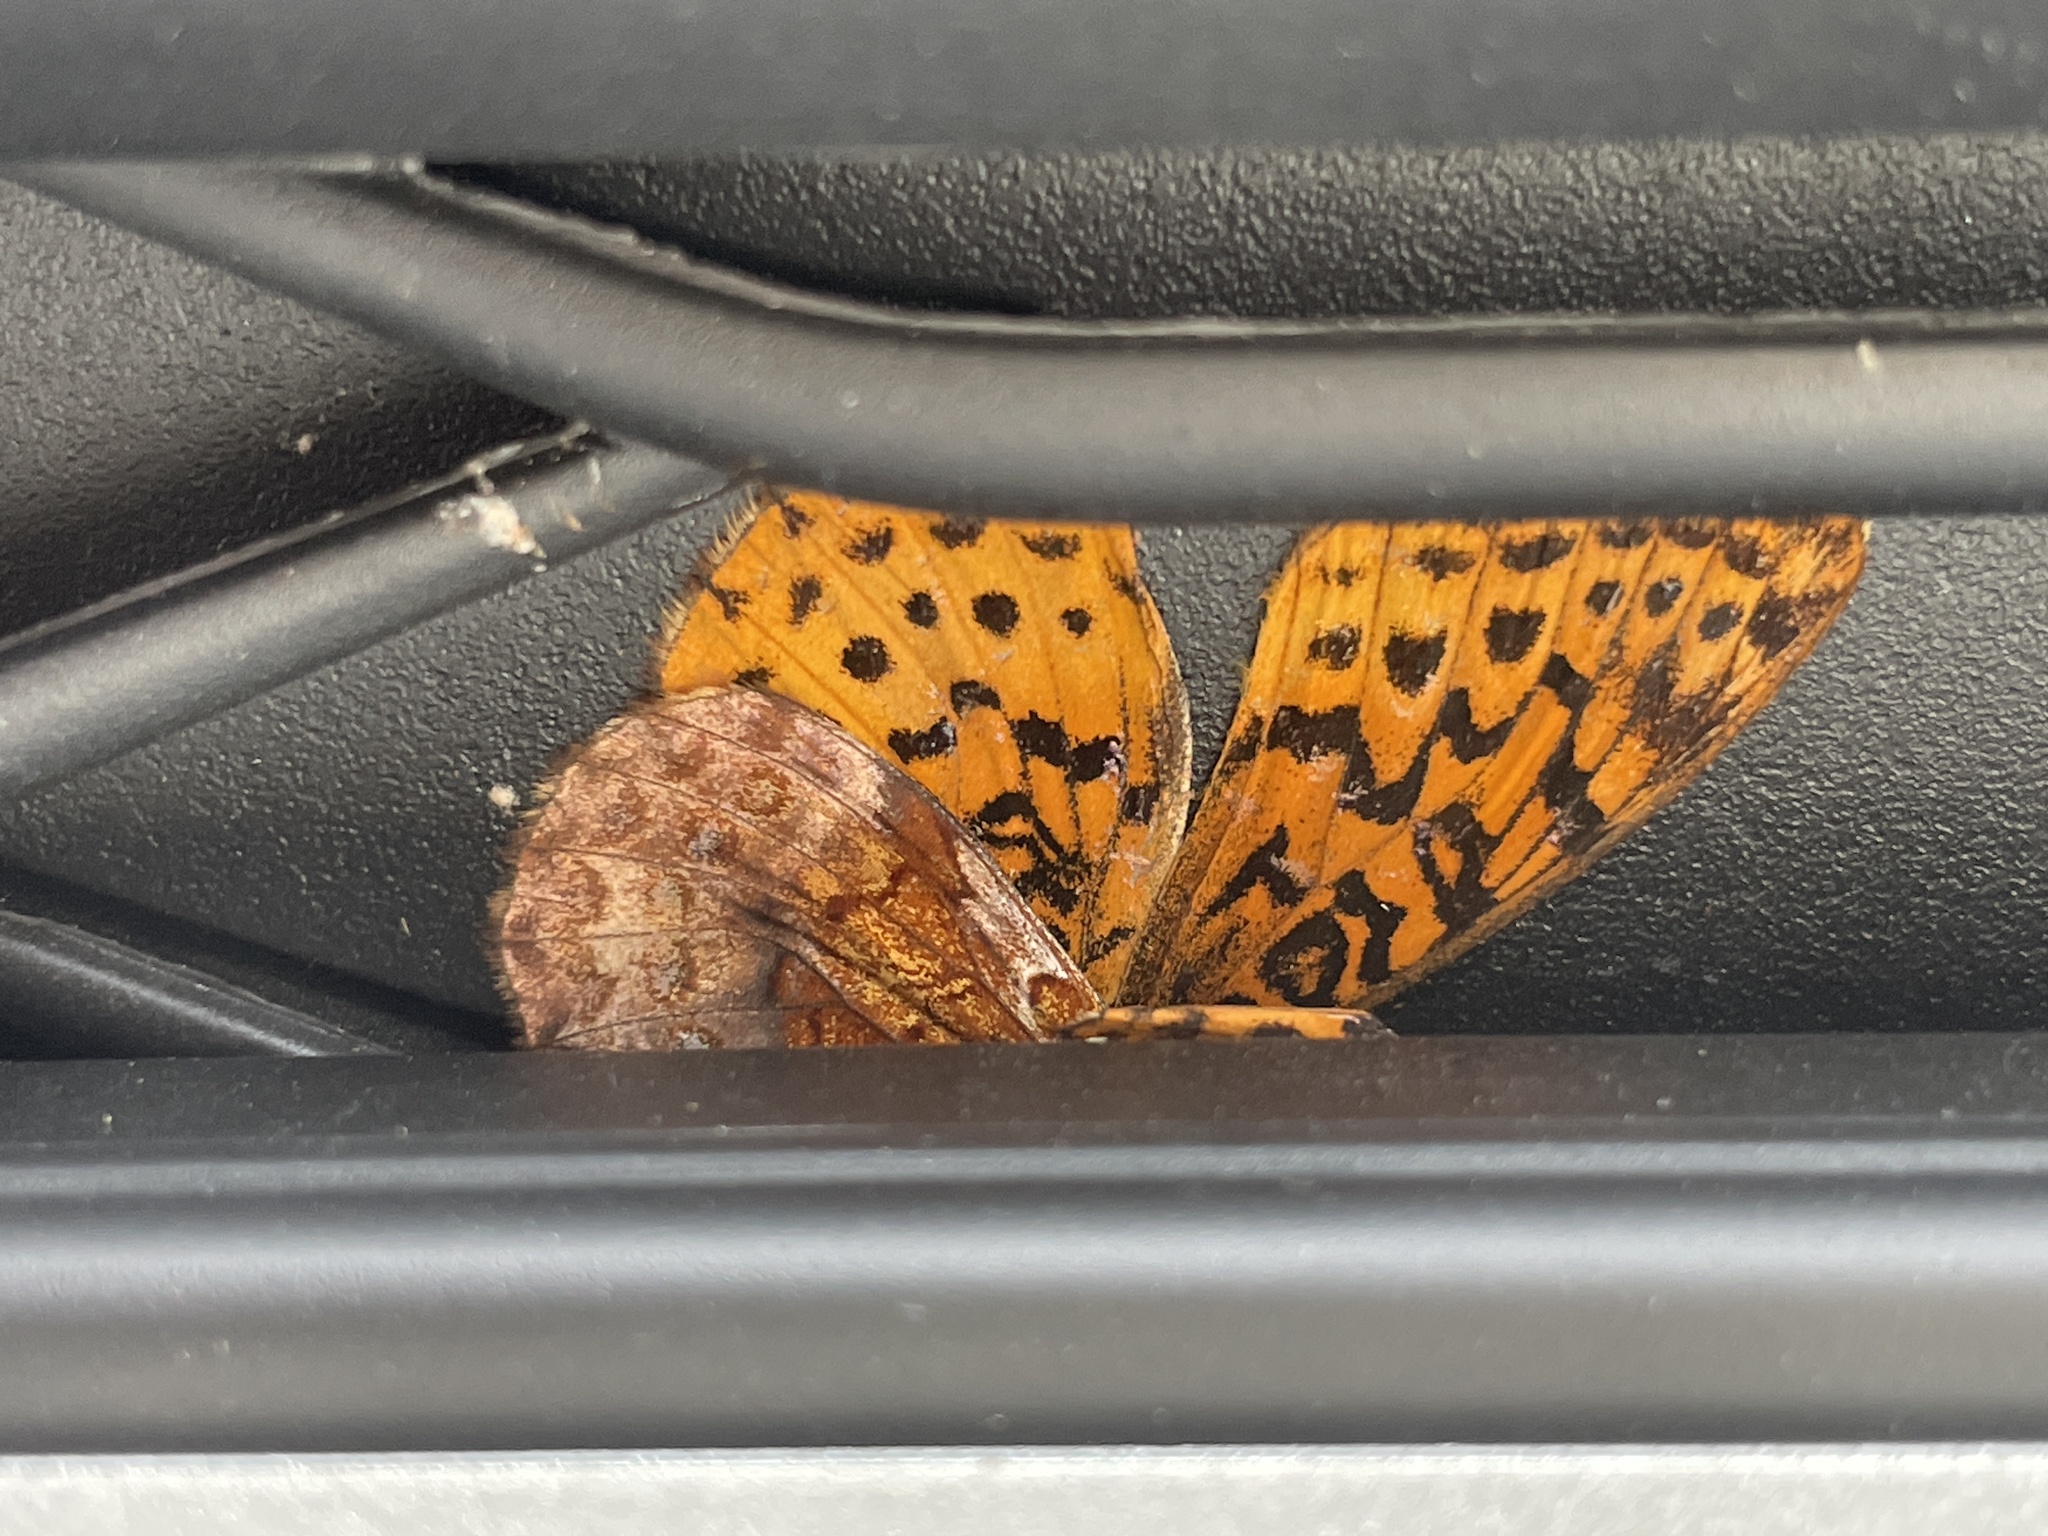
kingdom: Animalia
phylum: Arthropoda
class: Insecta
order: Lepidoptera
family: Nymphalidae
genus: Clossiana
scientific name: Clossiana toddi
